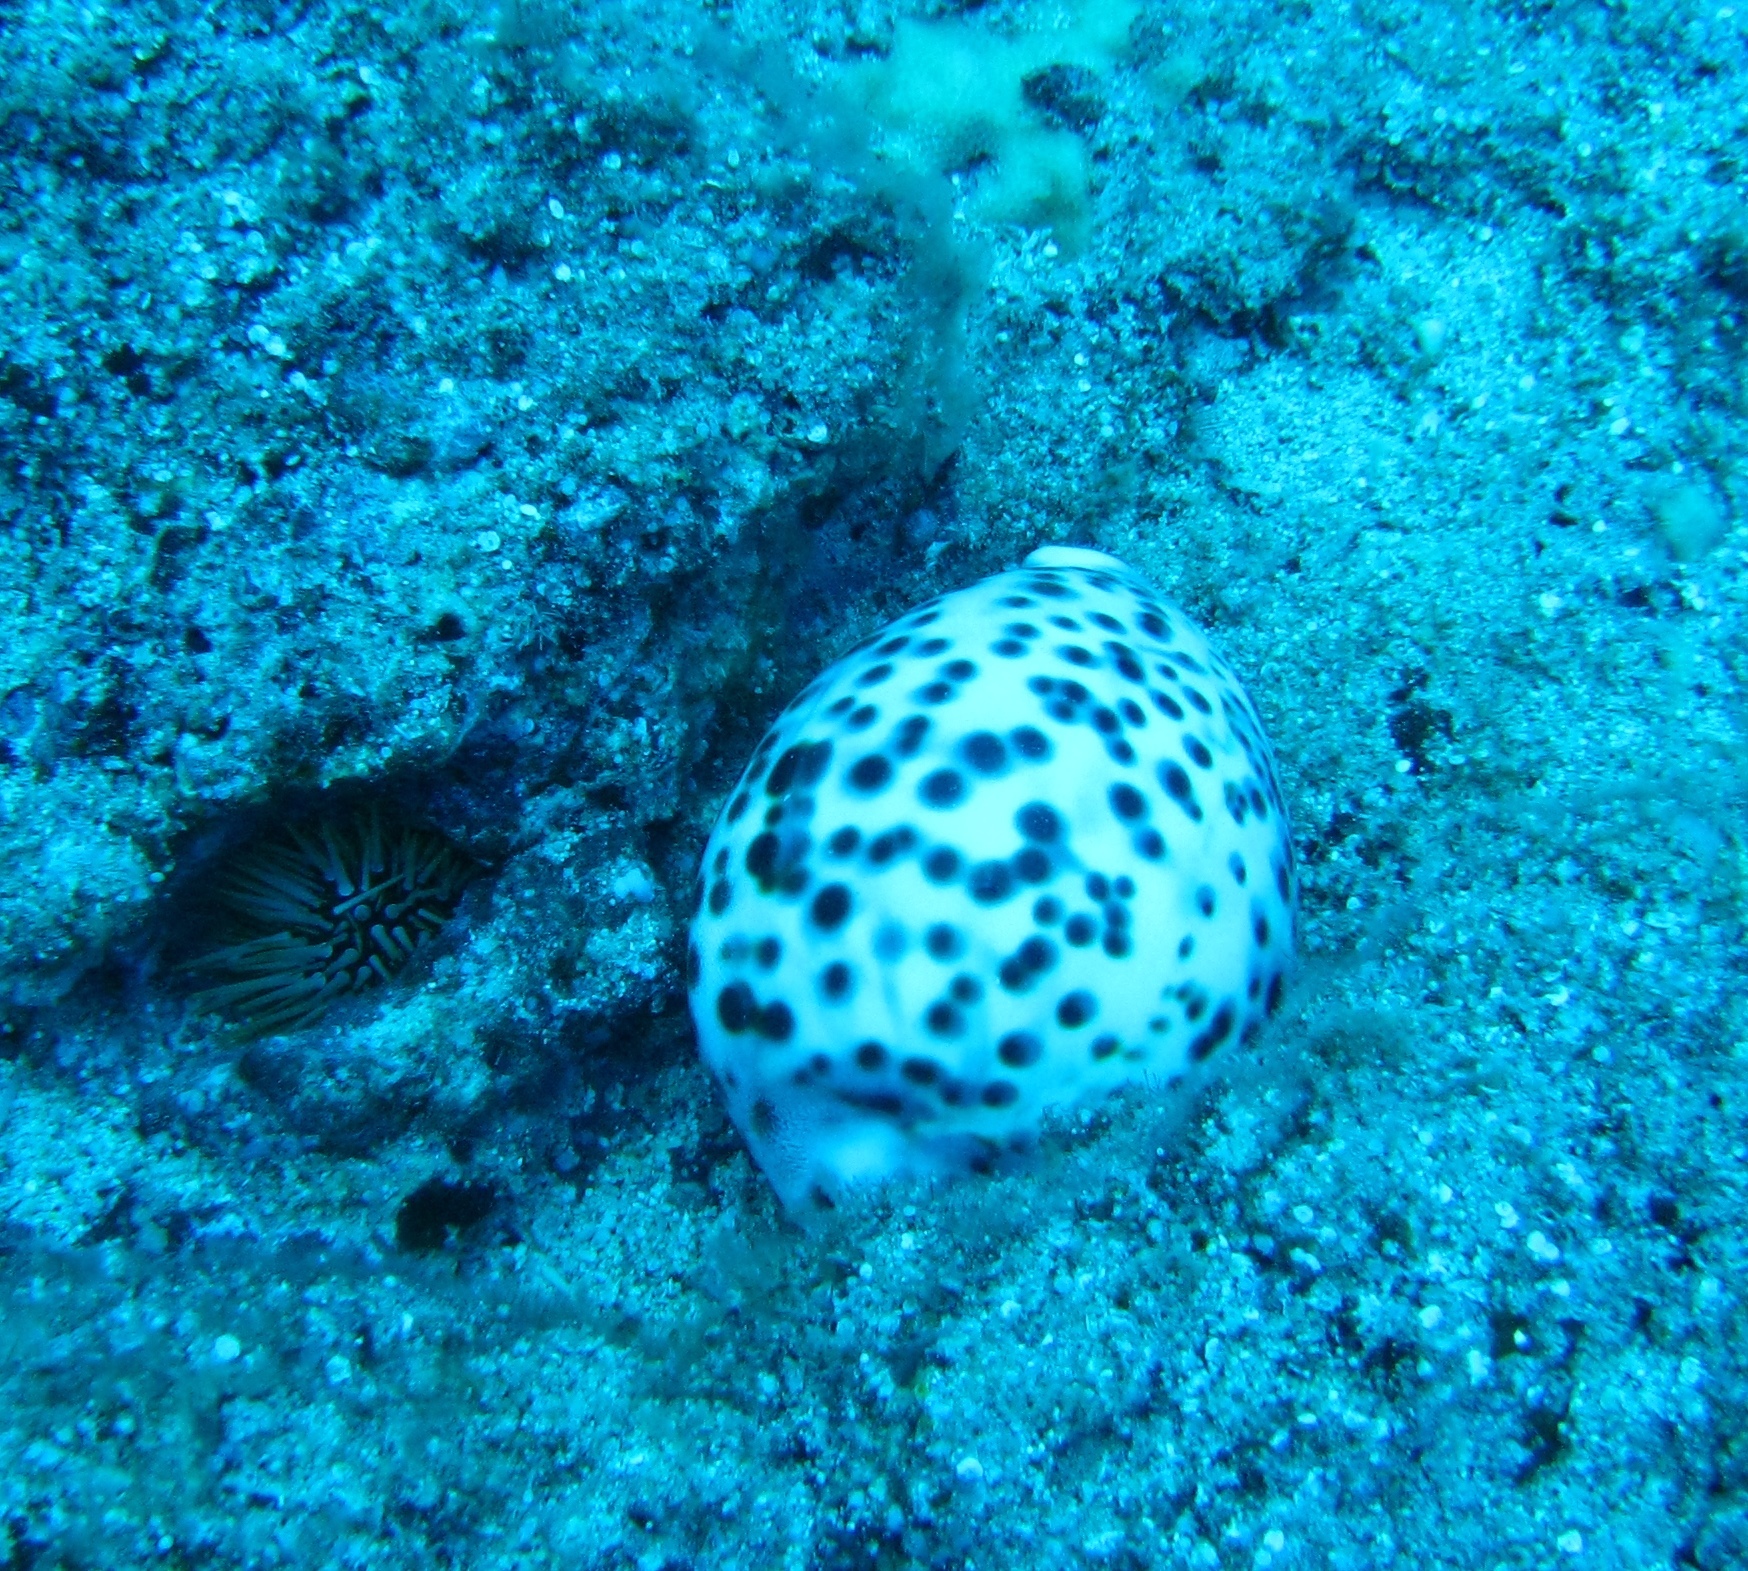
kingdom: Animalia
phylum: Mollusca
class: Gastropoda
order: Littorinimorpha
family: Cypraeidae
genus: Cypraea
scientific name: Cypraea tigris
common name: Tiger cowrie
